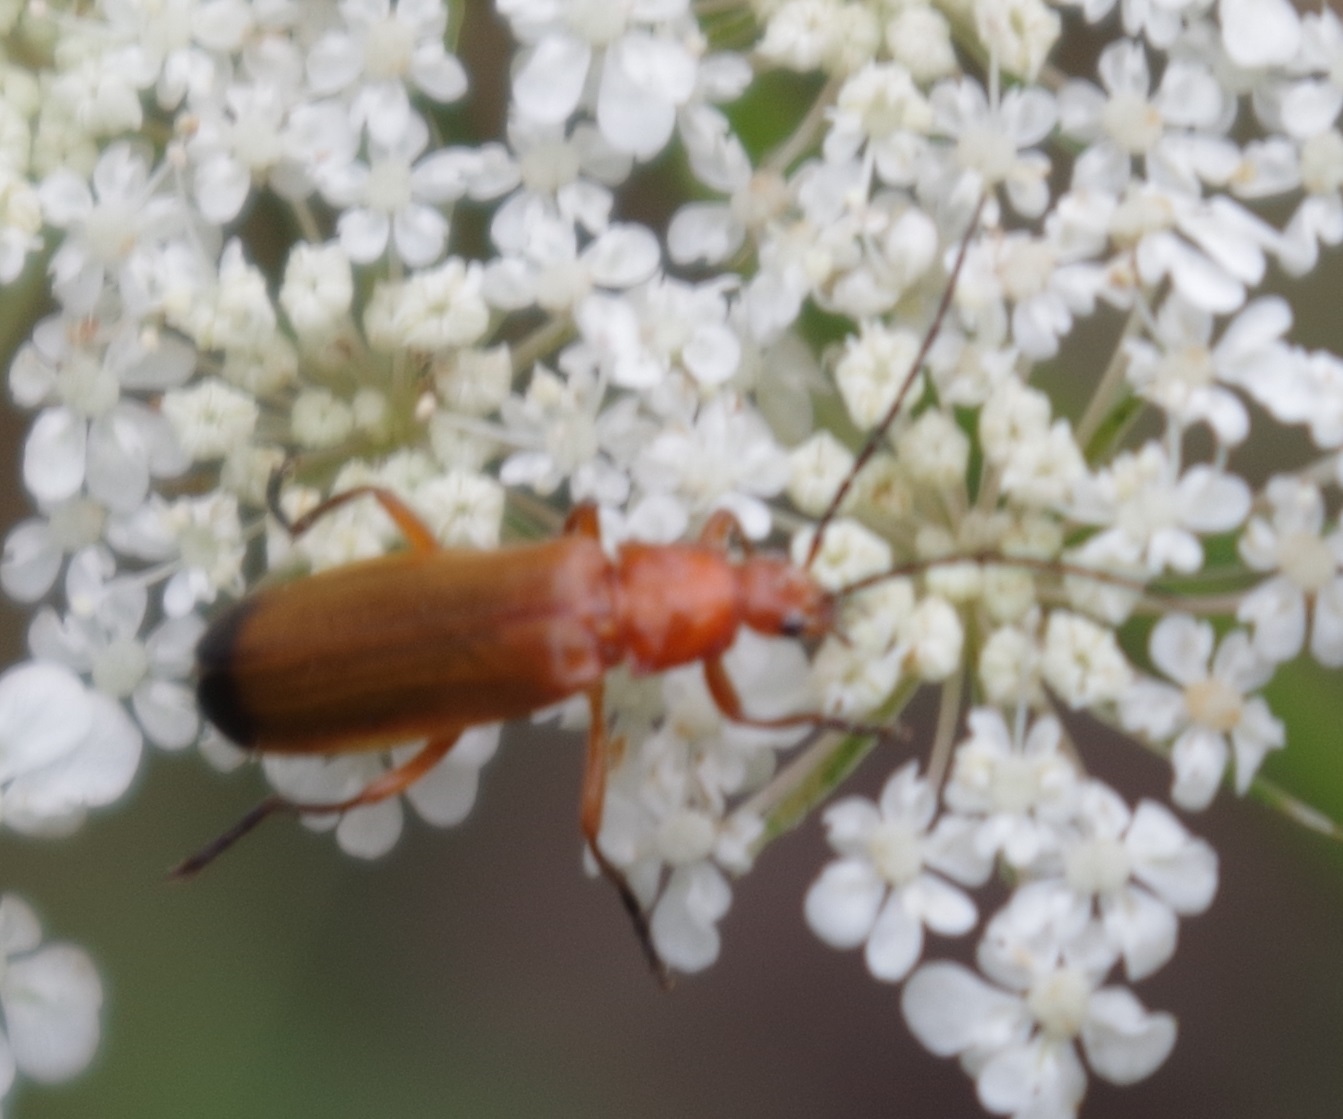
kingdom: Animalia
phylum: Arthropoda
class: Insecta
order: Coleoptera
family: Cantharidae
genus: Rhagonycha
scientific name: Rhagonycha fulva
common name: Common red soldier beetle
